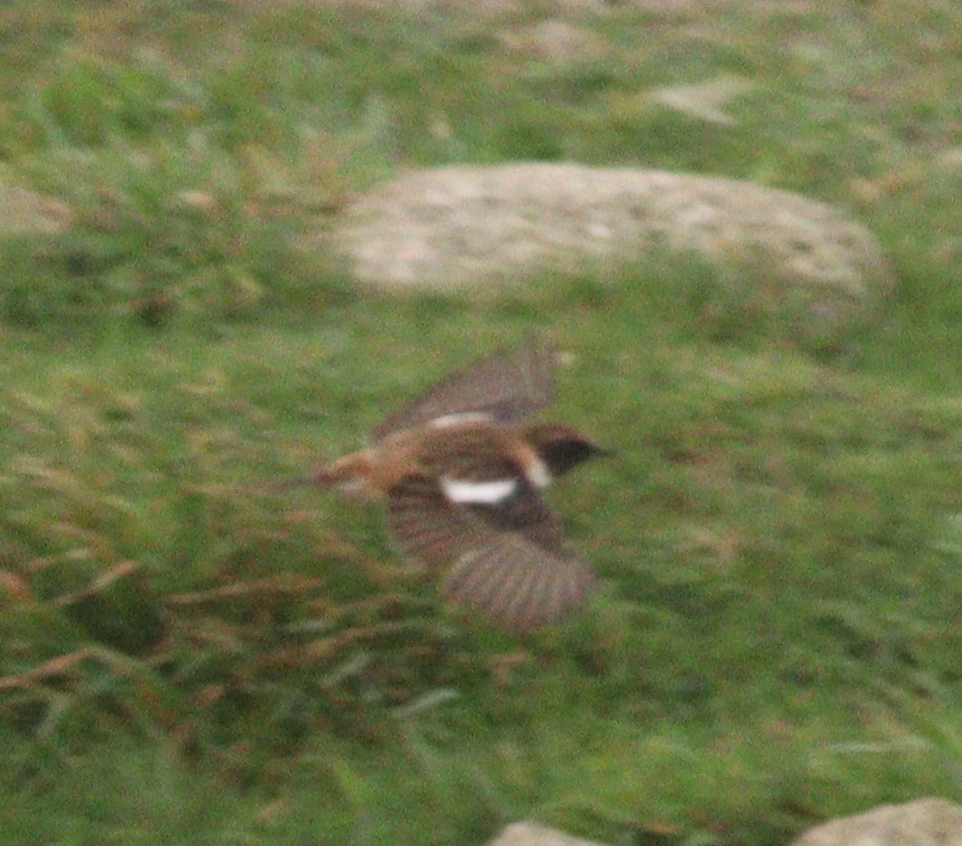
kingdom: Animalia
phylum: Chordata
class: Aves
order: Passeriformes
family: Muscicapidae
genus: Saxicola
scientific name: Saxicola rubicola
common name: European stonechat
